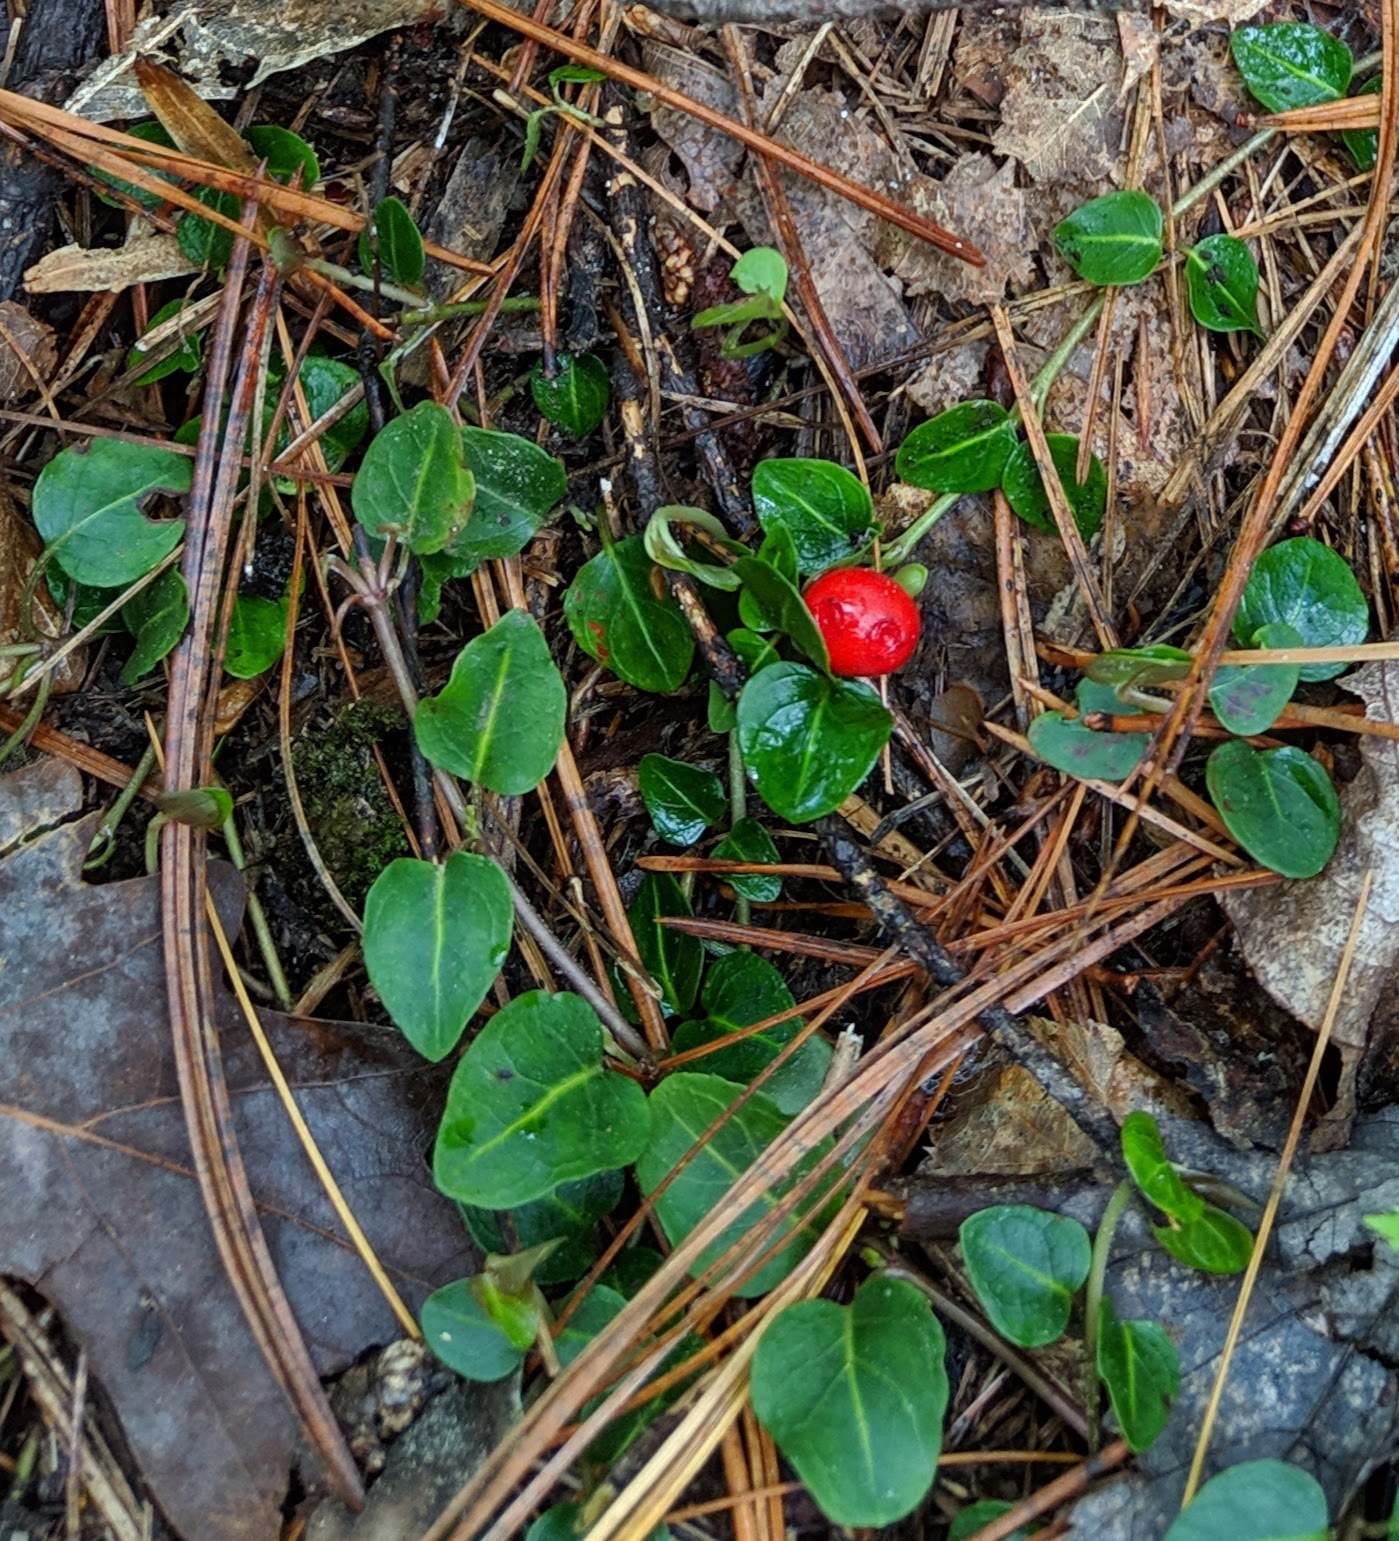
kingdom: Plantae
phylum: Tracheophyta
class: Magnoliopsida
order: Gentianales
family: Rubiaceae
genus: Mitchella
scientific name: Mitchella repens
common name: Partridge-berry
